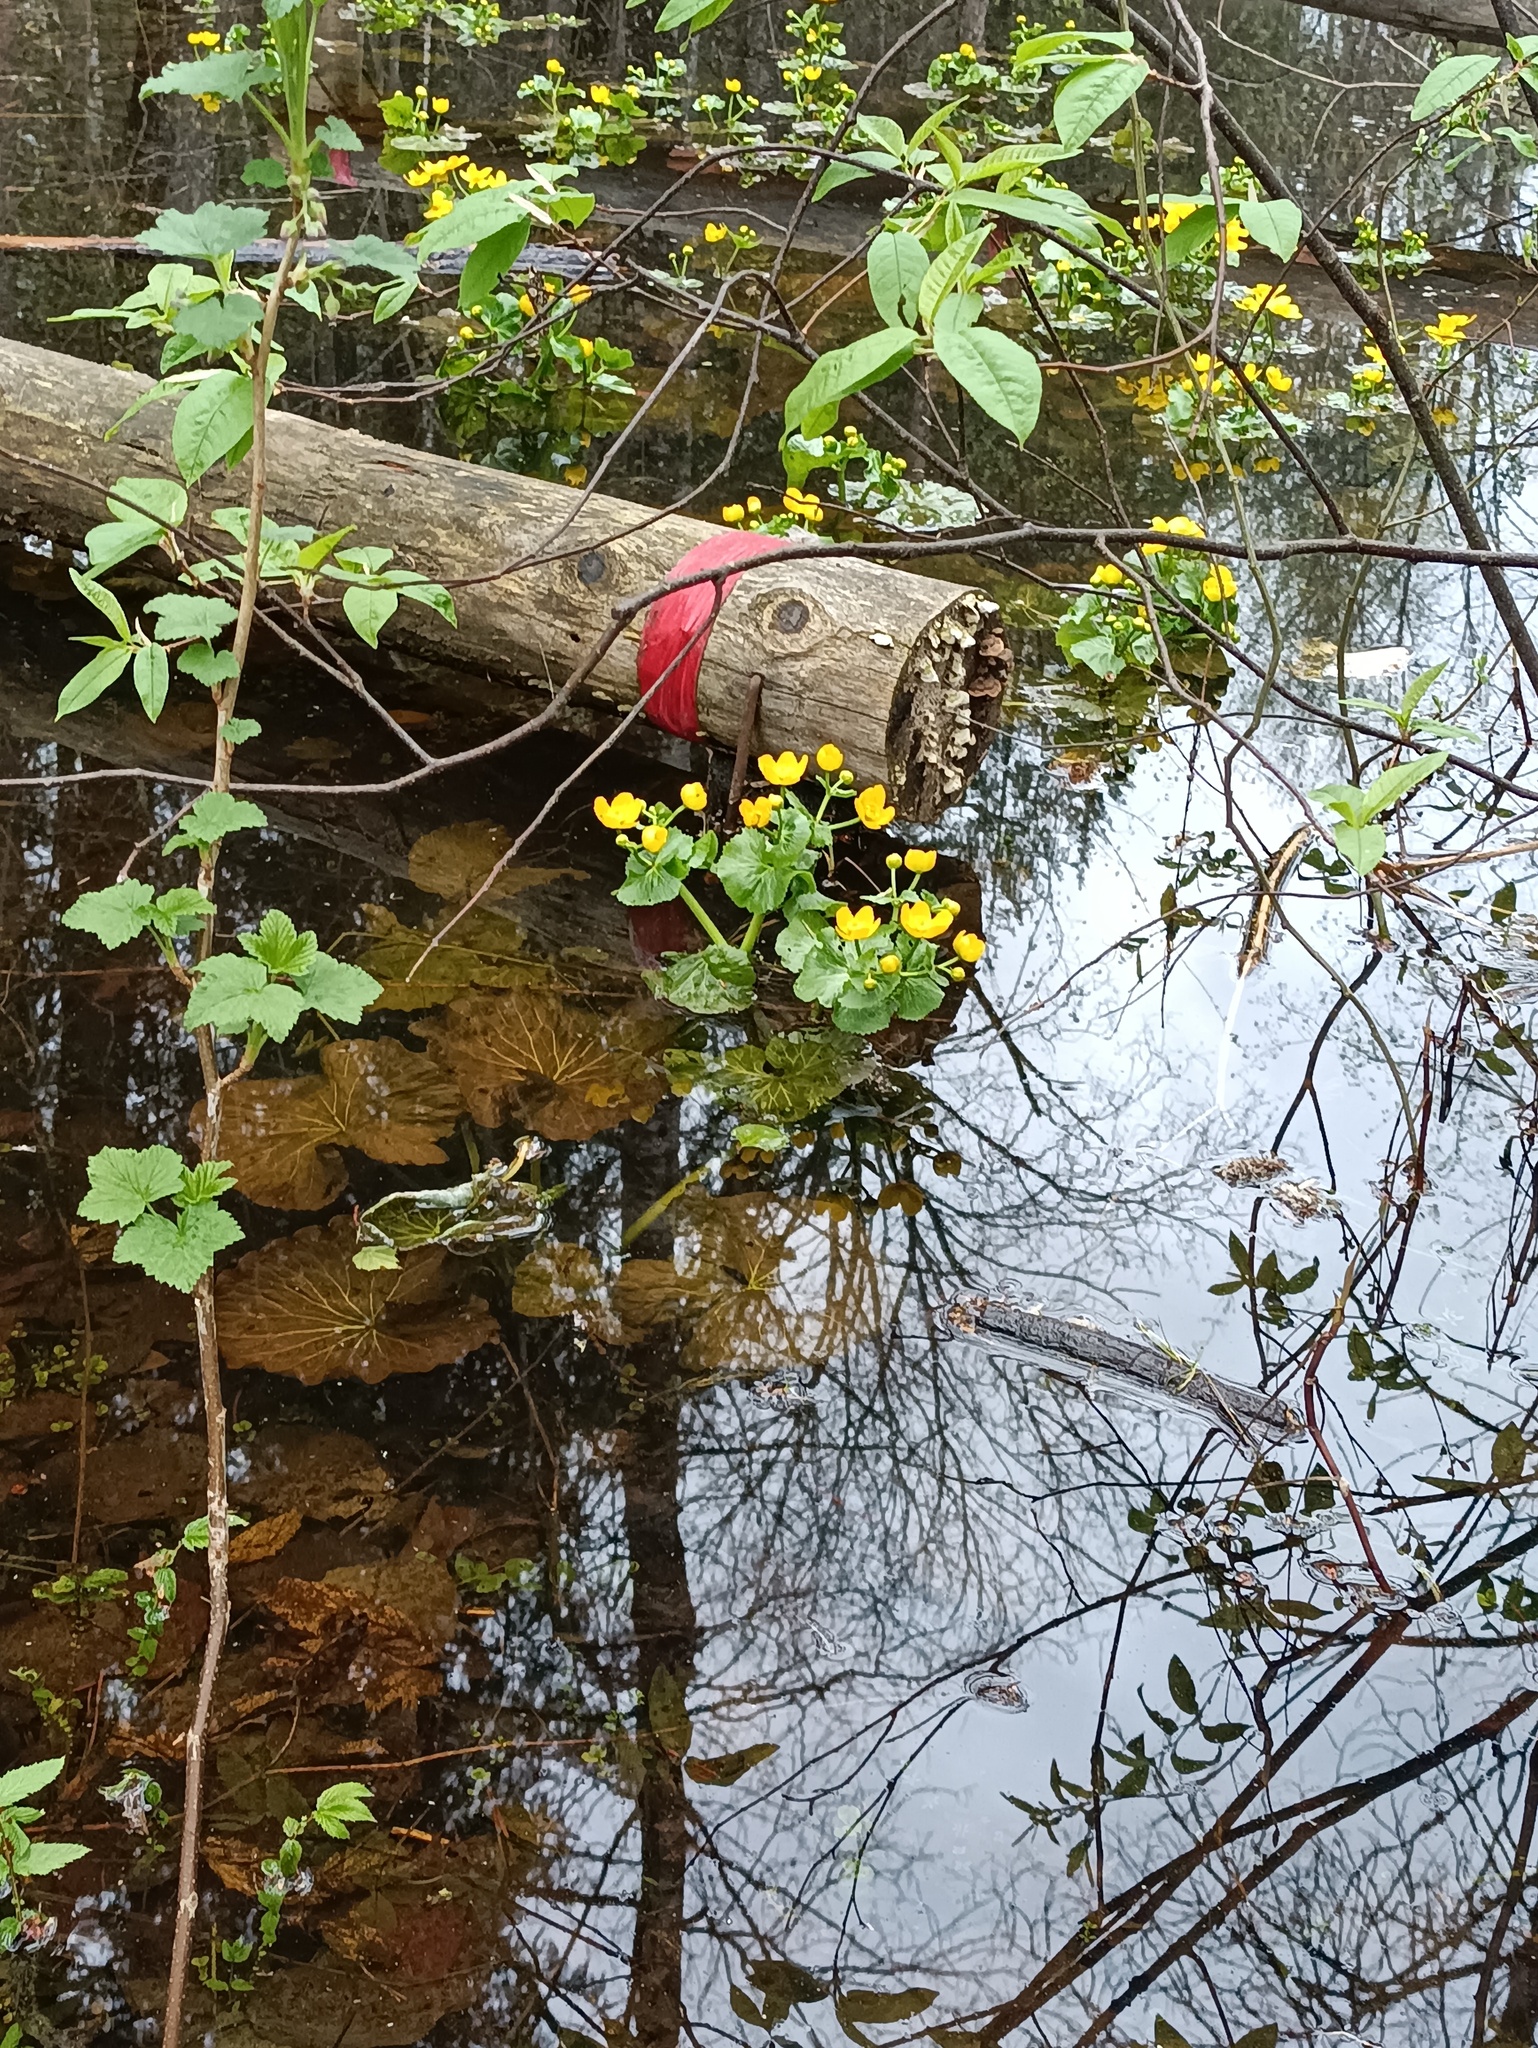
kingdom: Plantae
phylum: Tracheophyta
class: Magnoliopsida
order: Ranunculales
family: Ranunculaceae
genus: Caltha
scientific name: Caltha palustris
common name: Marsh marigold
